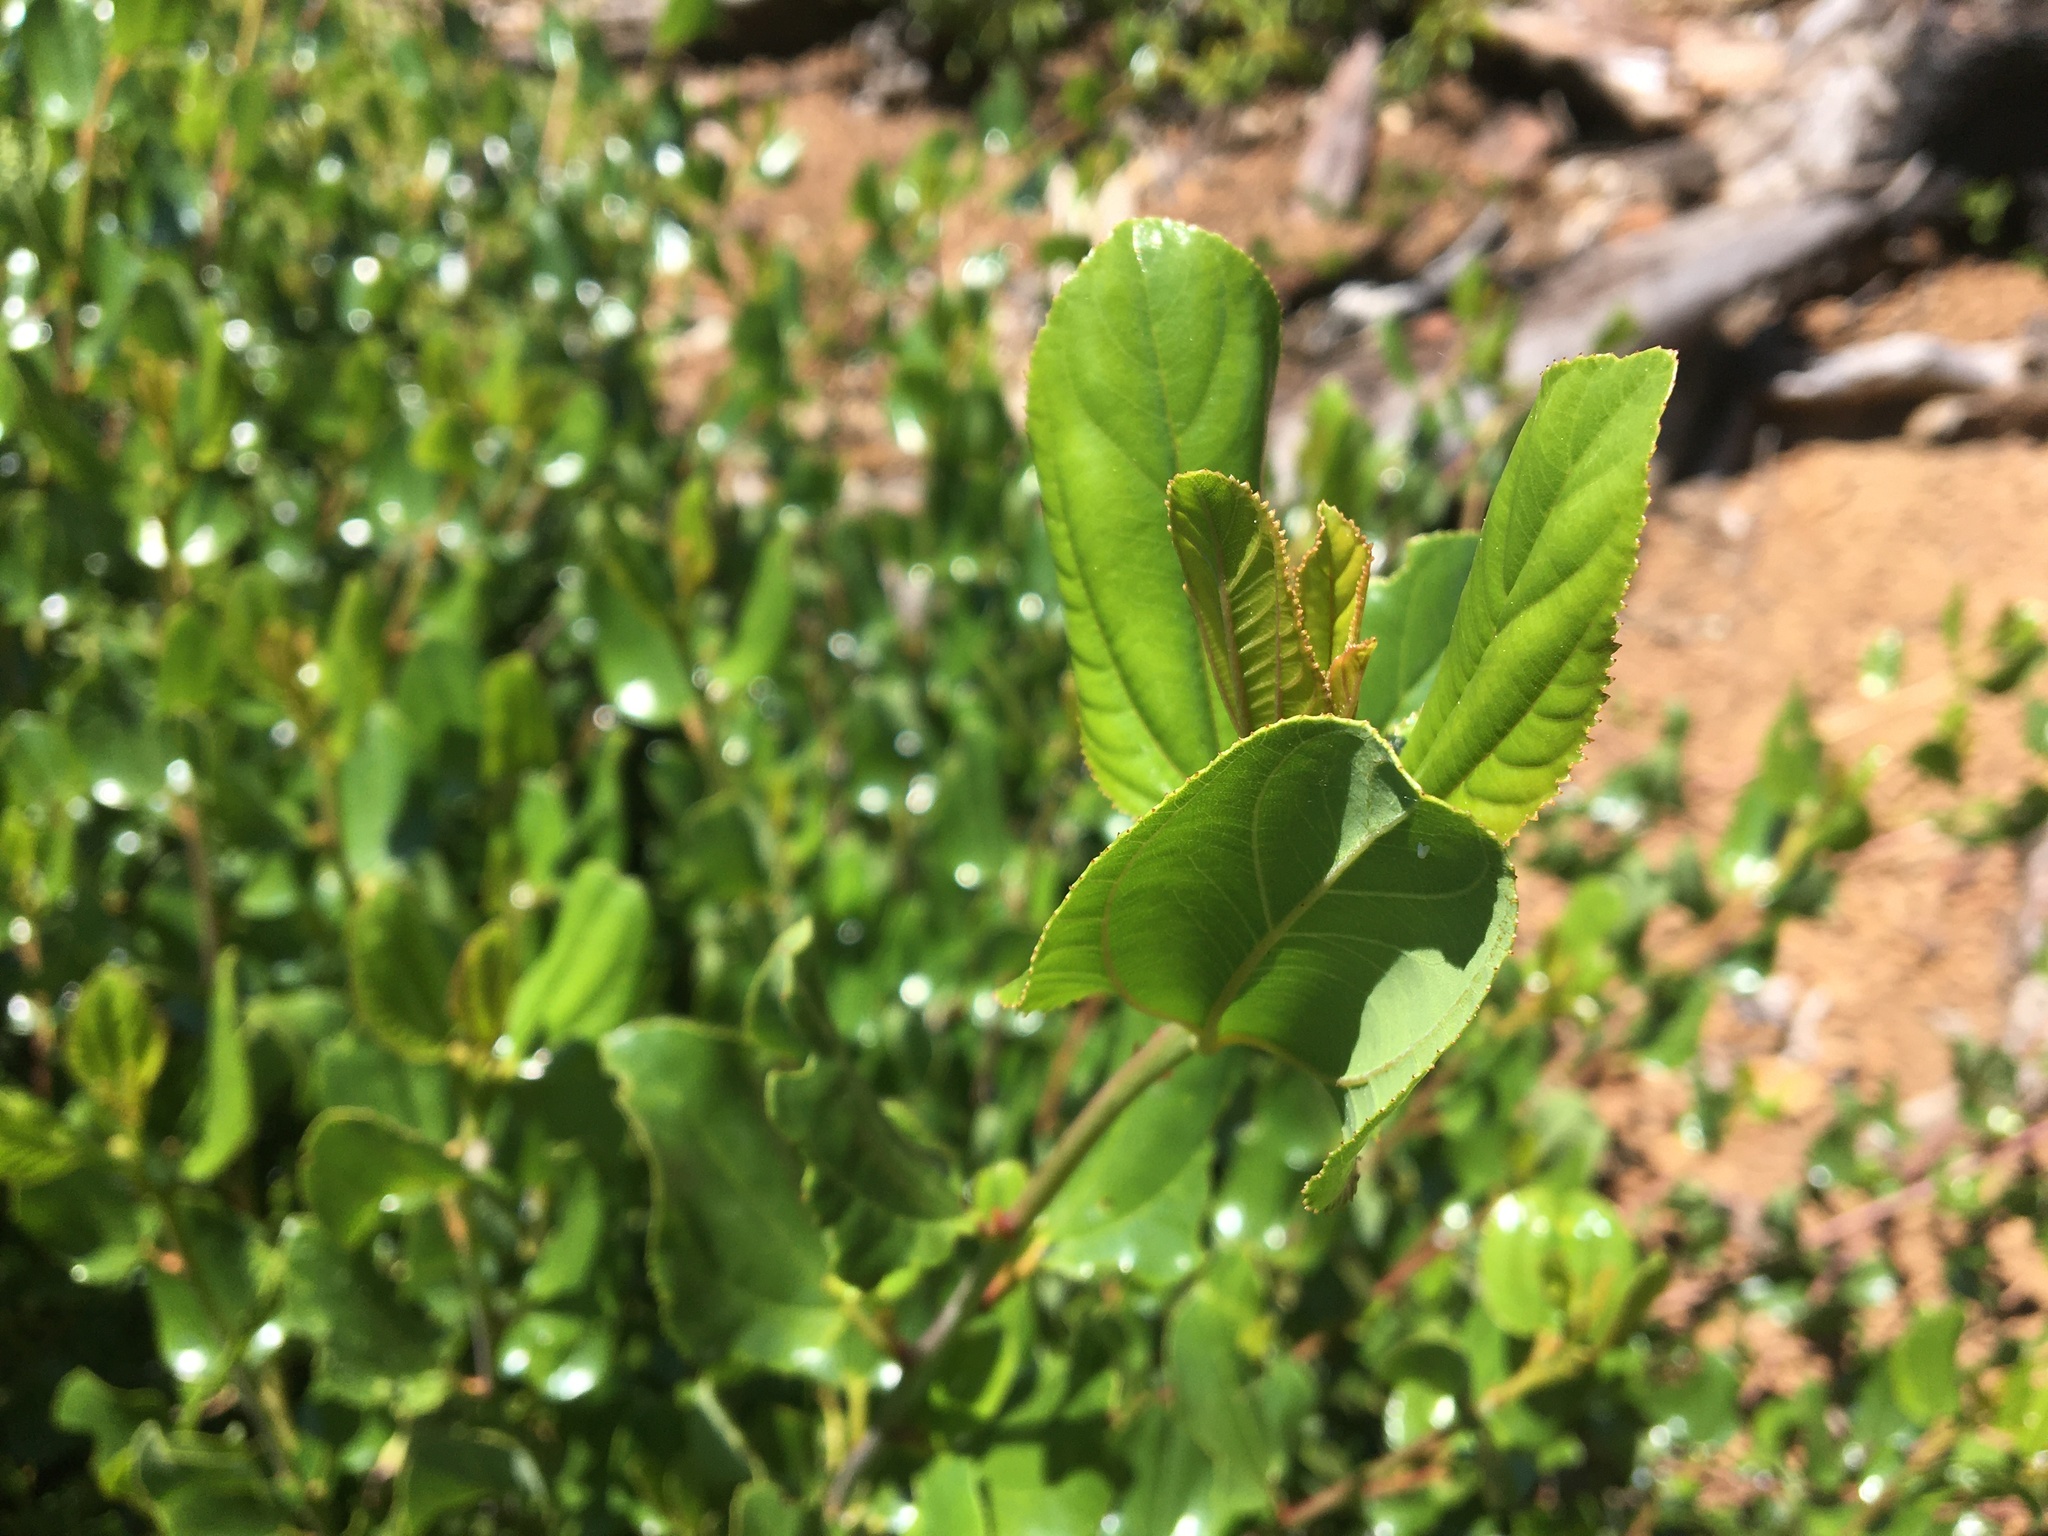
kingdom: Plantae
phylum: Tracheophyta
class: Magnoliopsida
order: Rosales
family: Rhamnaceae
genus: Ceanothus
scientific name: Ceanothus velutinus
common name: Snowbrush
